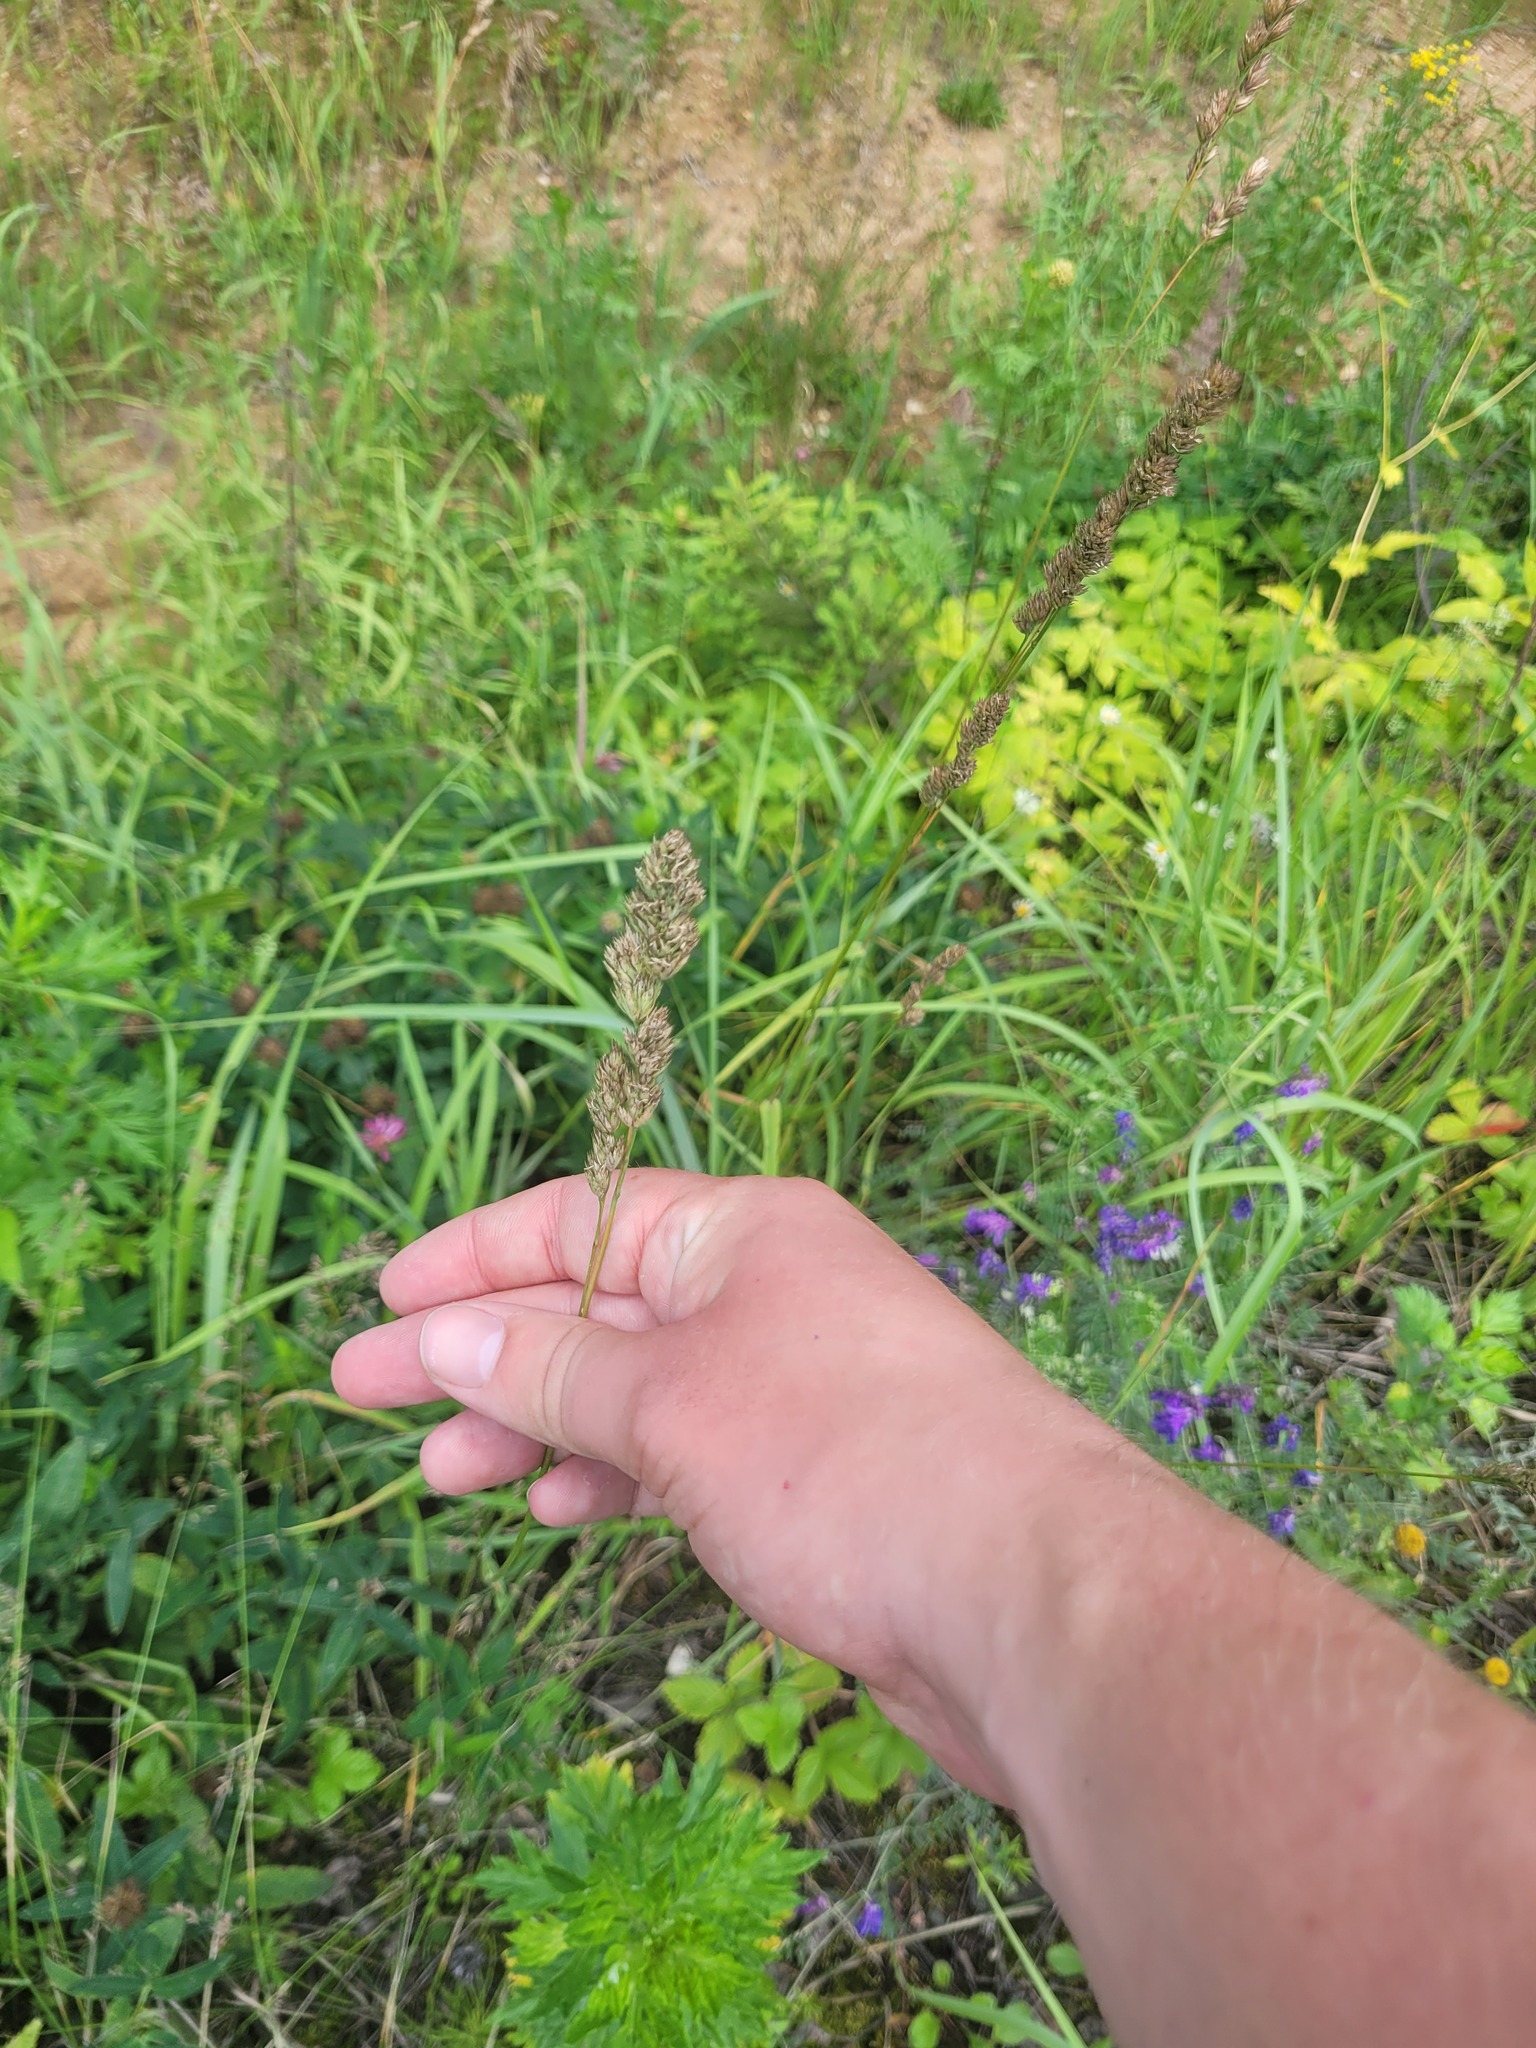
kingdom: Plantae
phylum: Tracheophyta
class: Liliopsida
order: Poales
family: Poaceae
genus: Dactylis
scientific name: Dactylis glomerata
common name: Orchardgrass
